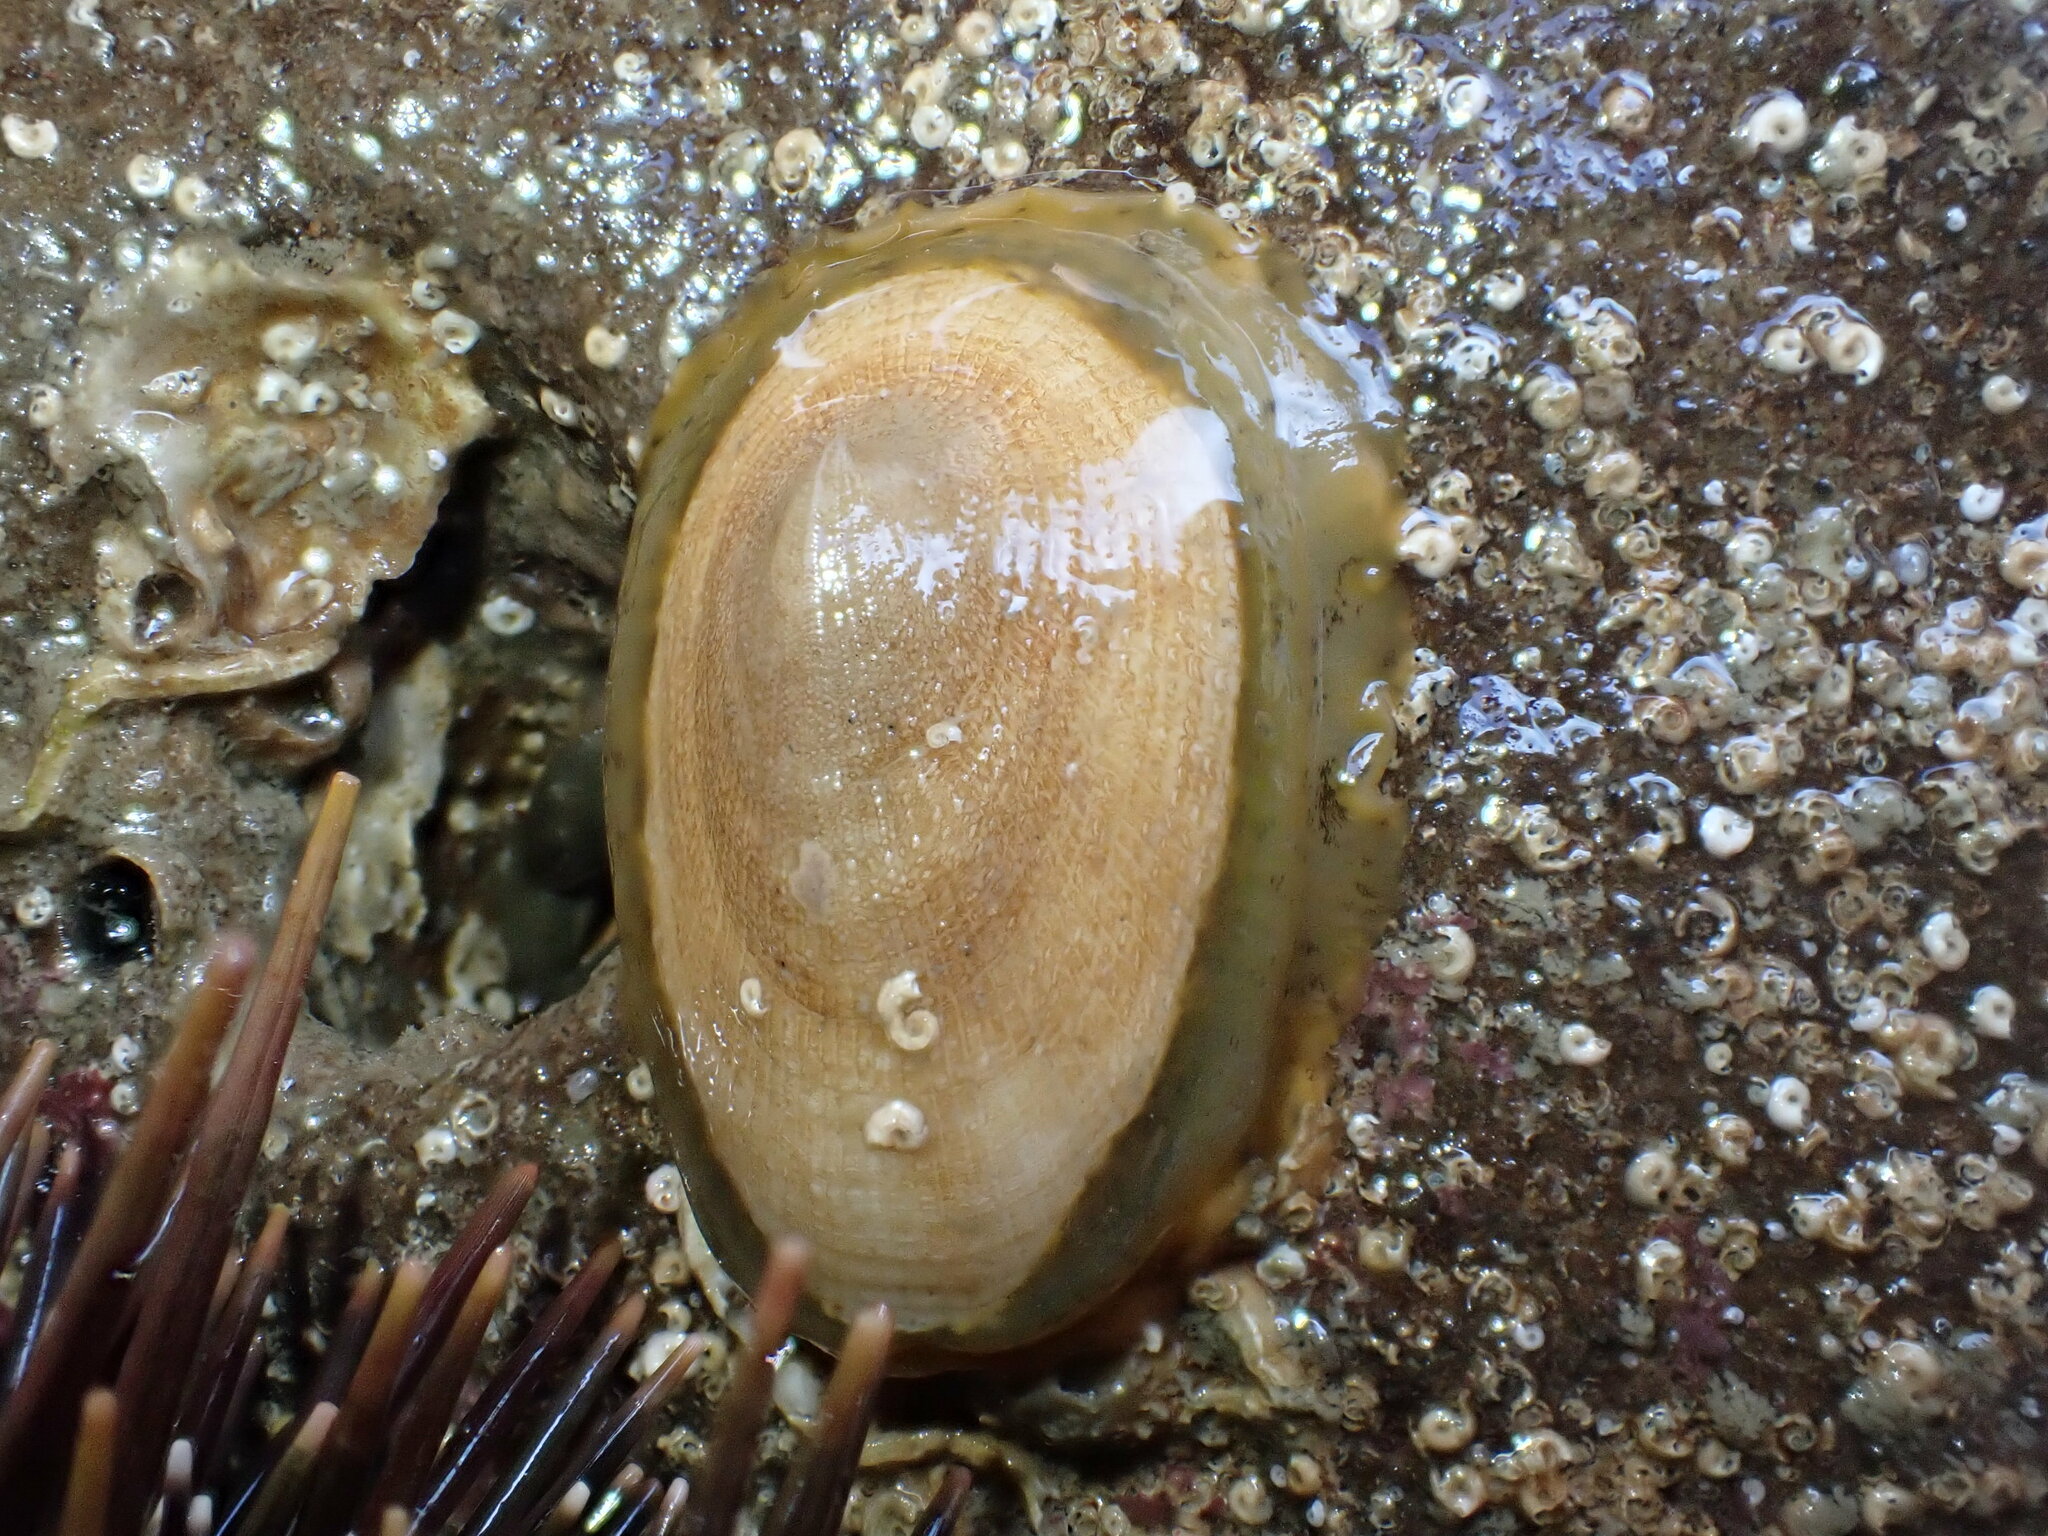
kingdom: Animalia
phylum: Mollusca
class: Gastropoda
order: Lepetellida
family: Fissurellidae
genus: Tugali
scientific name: Tugali elegans
